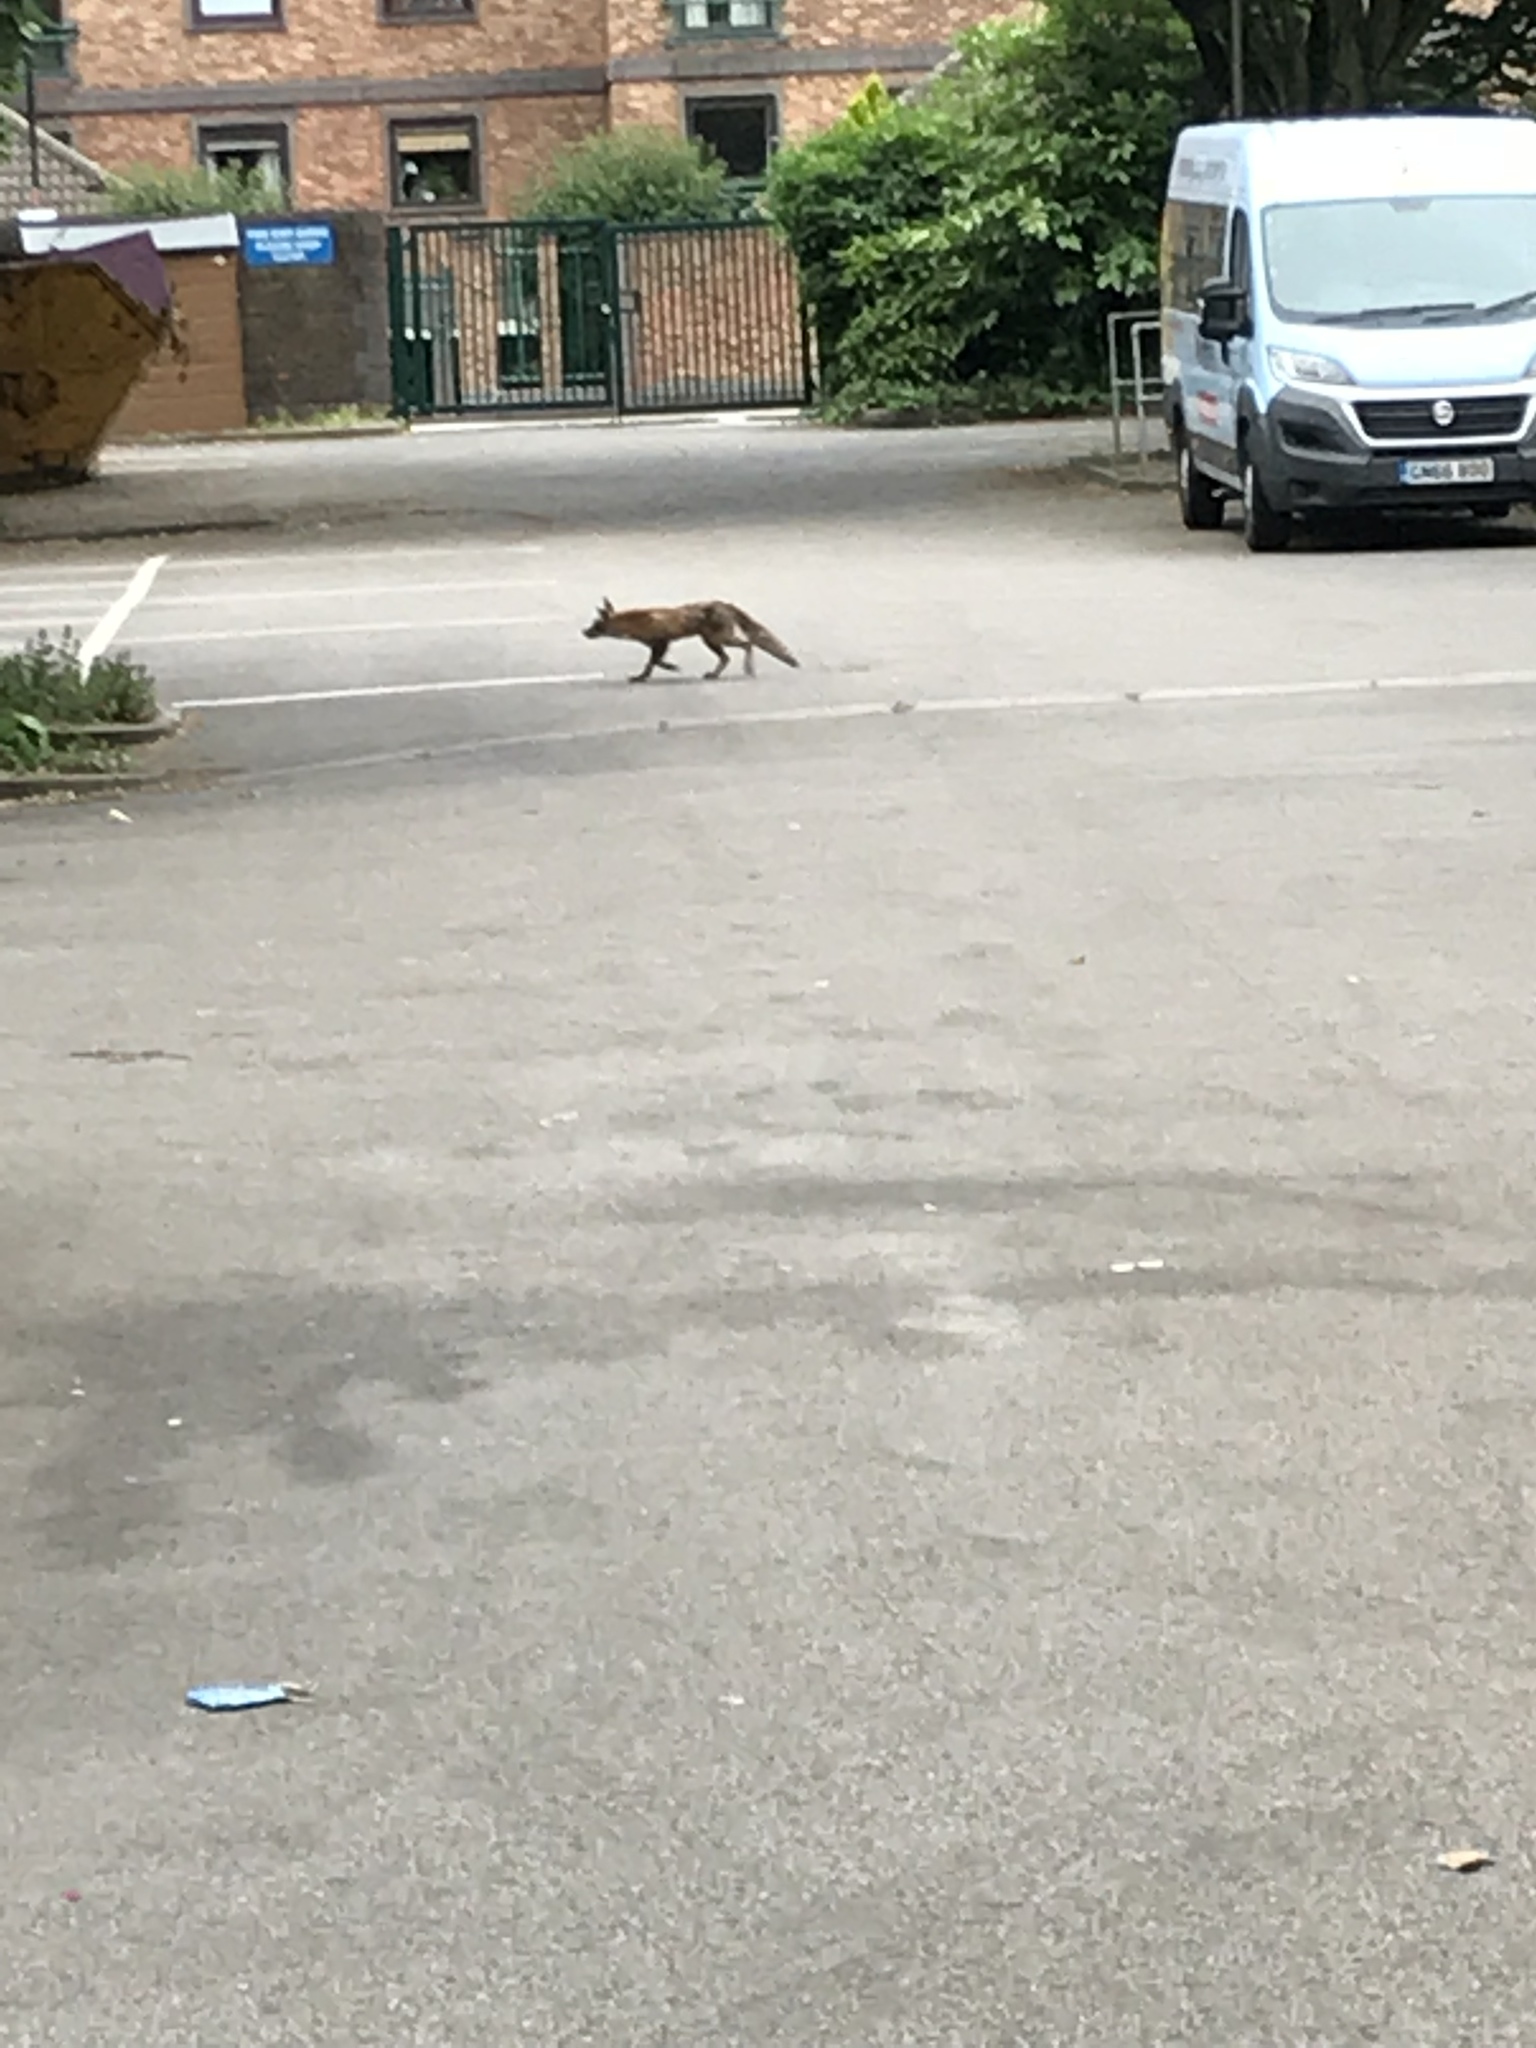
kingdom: Animalia
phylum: Chordata
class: Mammalia
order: Carnivora
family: Canidae
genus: Vulpes
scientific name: Vulpes vulpes
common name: Red fox
